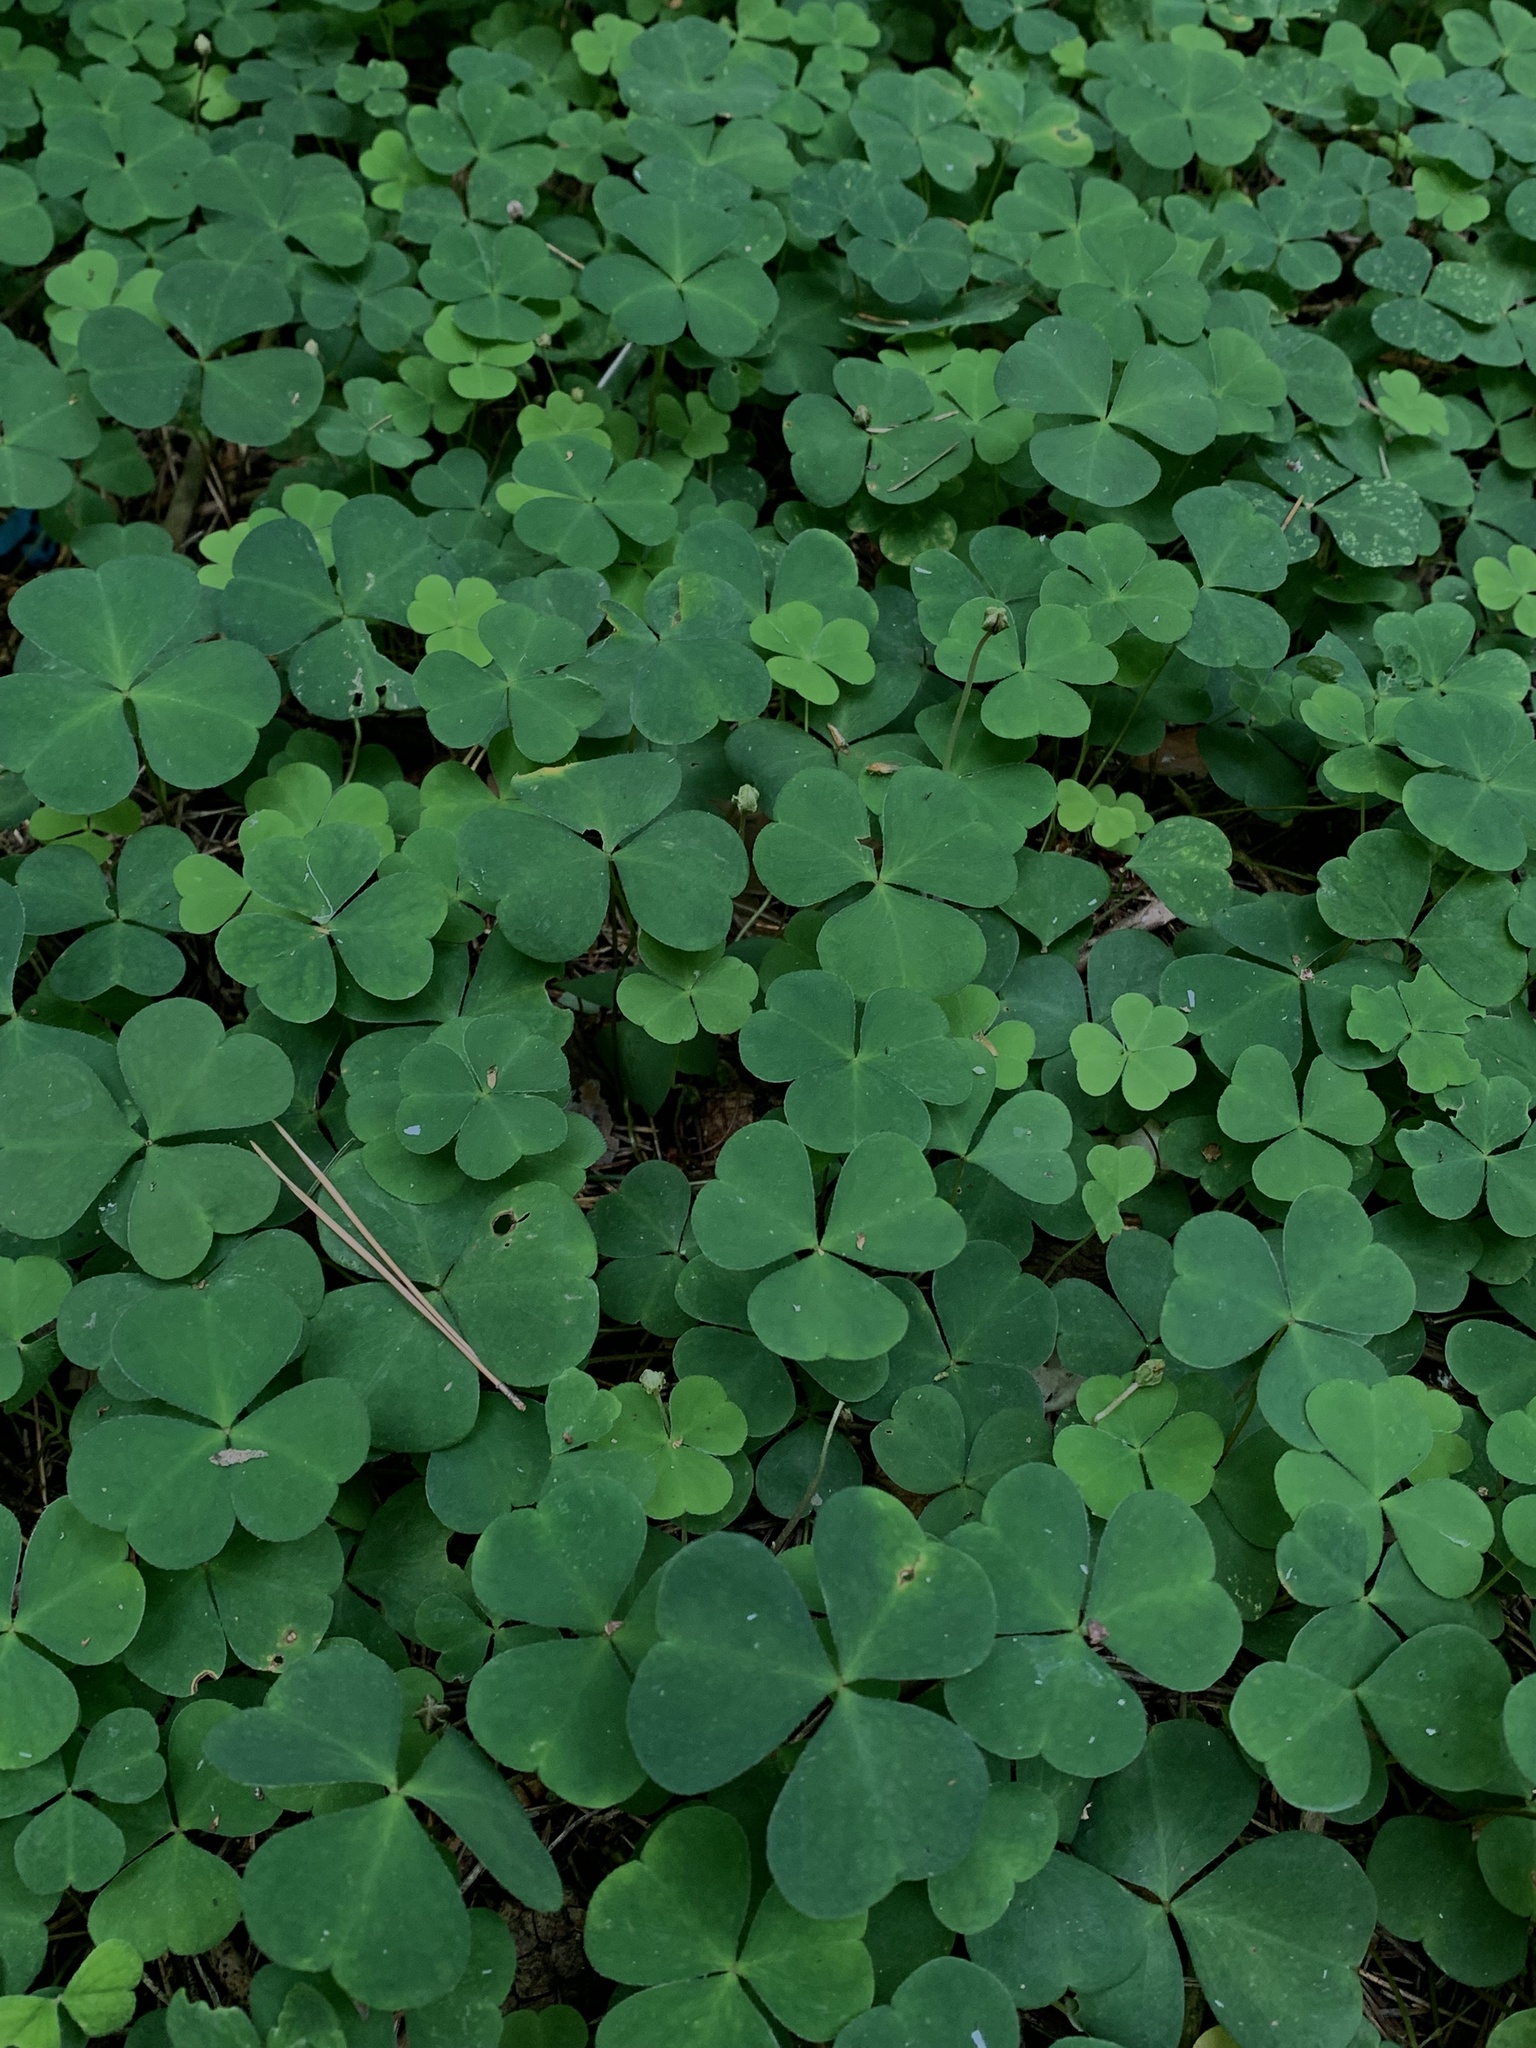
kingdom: Plantae
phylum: Tracheophyta
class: Magnoliopsida
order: Oxalidales
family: Oxalidaceae
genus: Oxalis
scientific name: Oxalis acetosella
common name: Wood-sorrel
